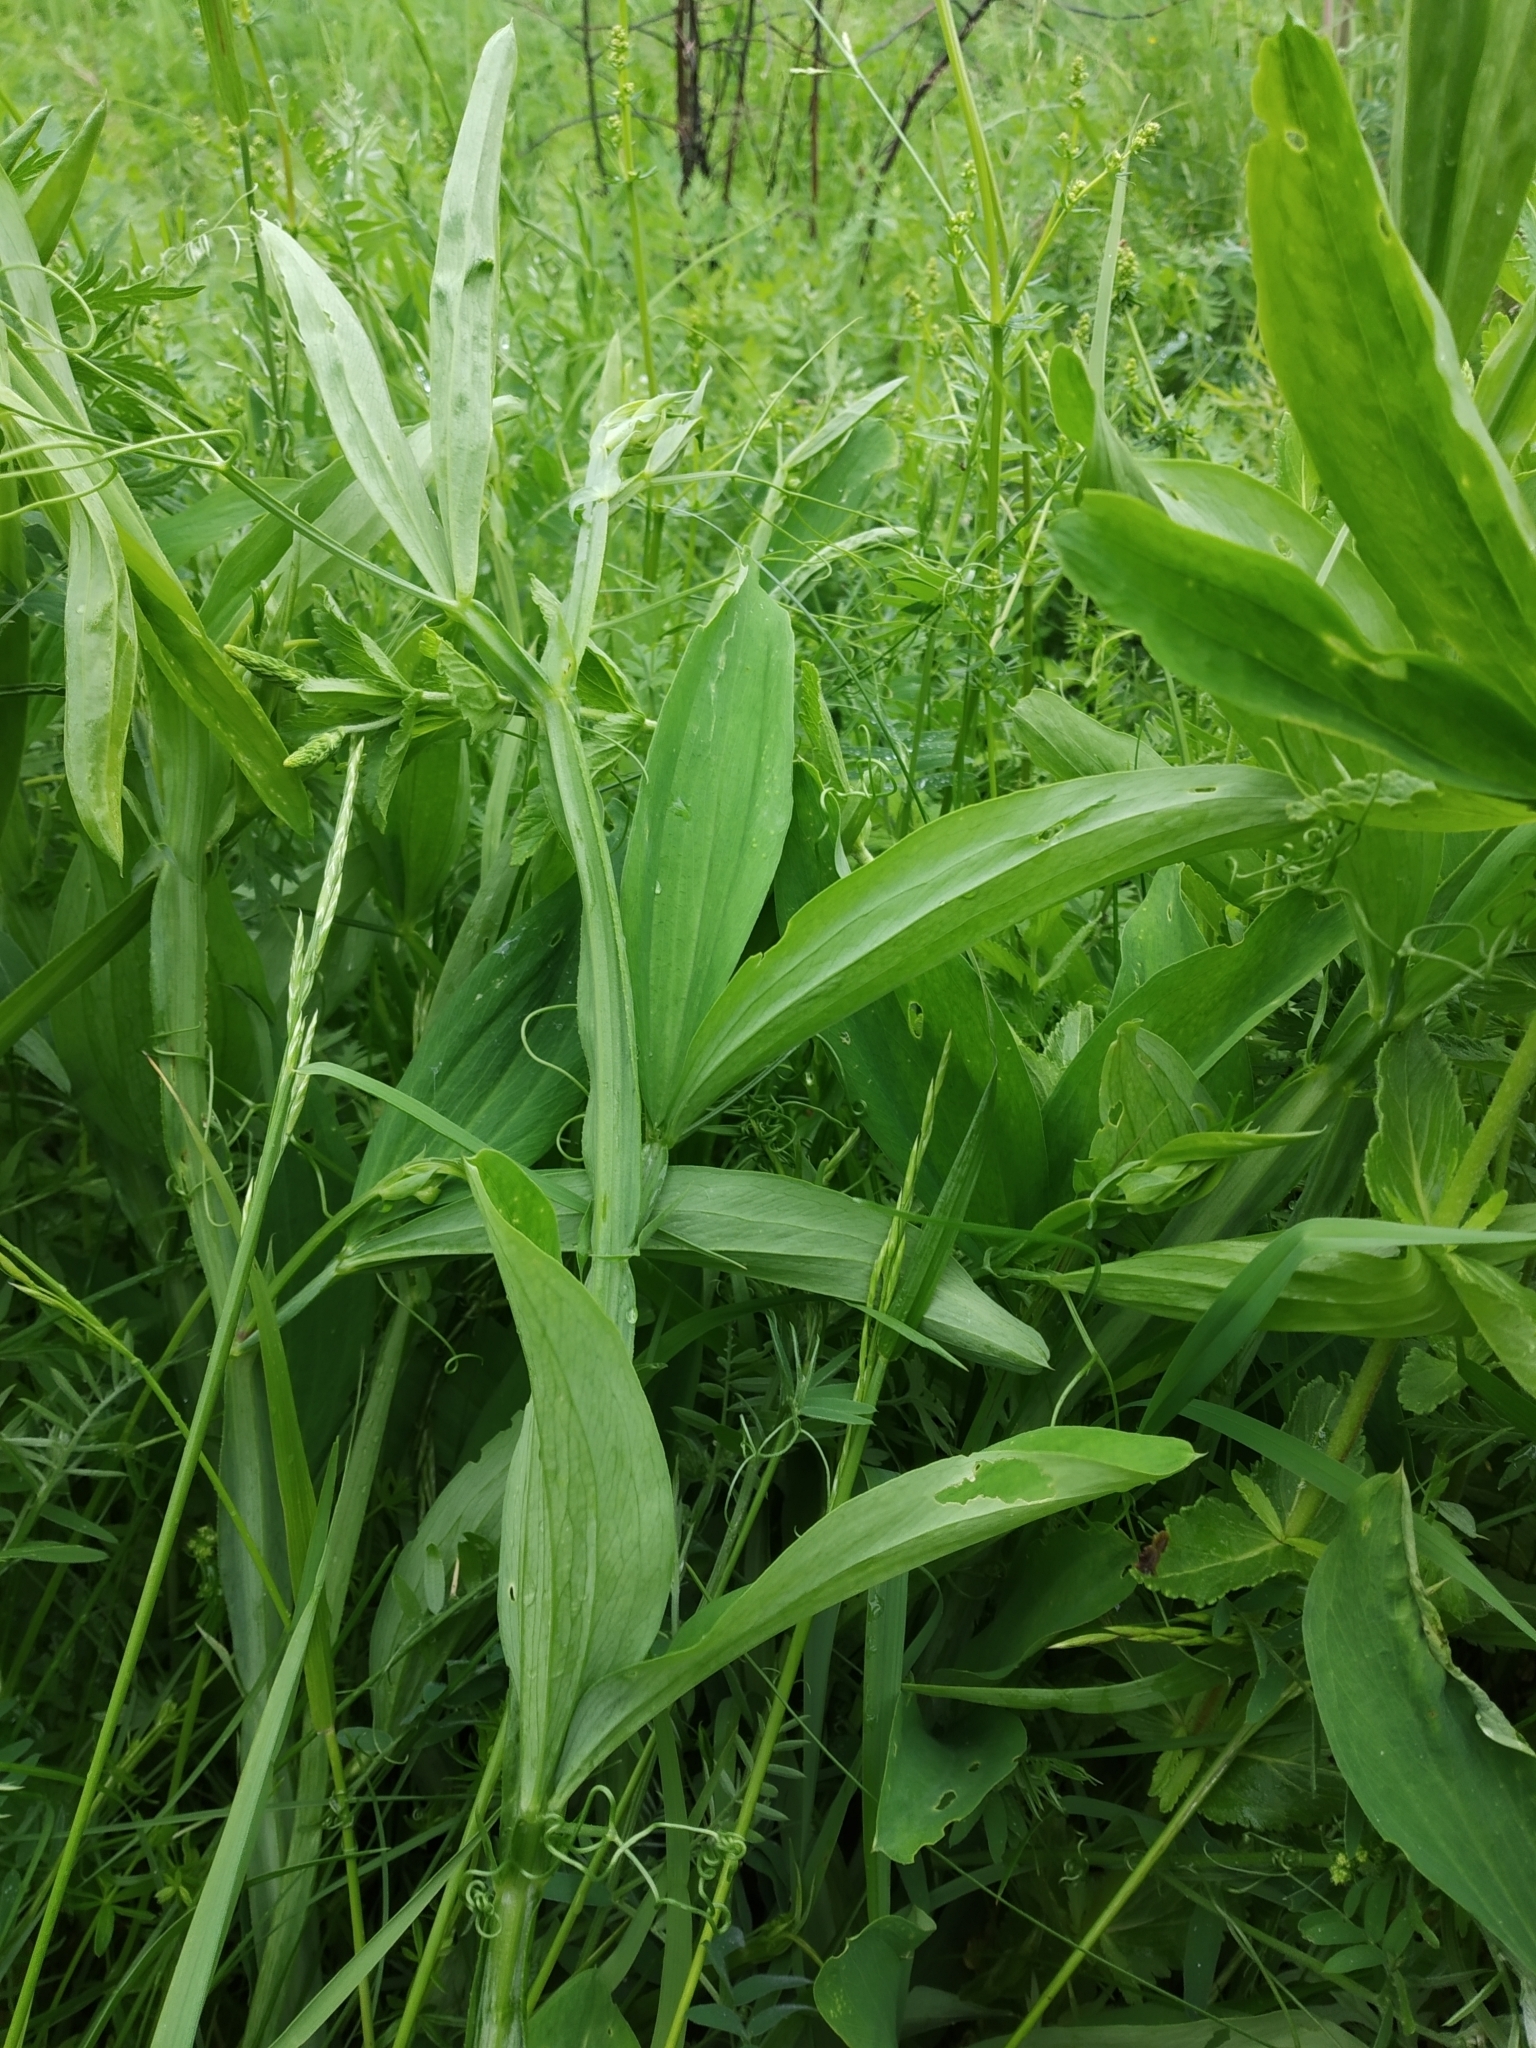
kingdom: Plantae
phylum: Tracheophyta
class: Magnoliopsida
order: Fabales
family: Fabaceae
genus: Lathyrus
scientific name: Lathyrus sylvestris
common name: Flat pea
